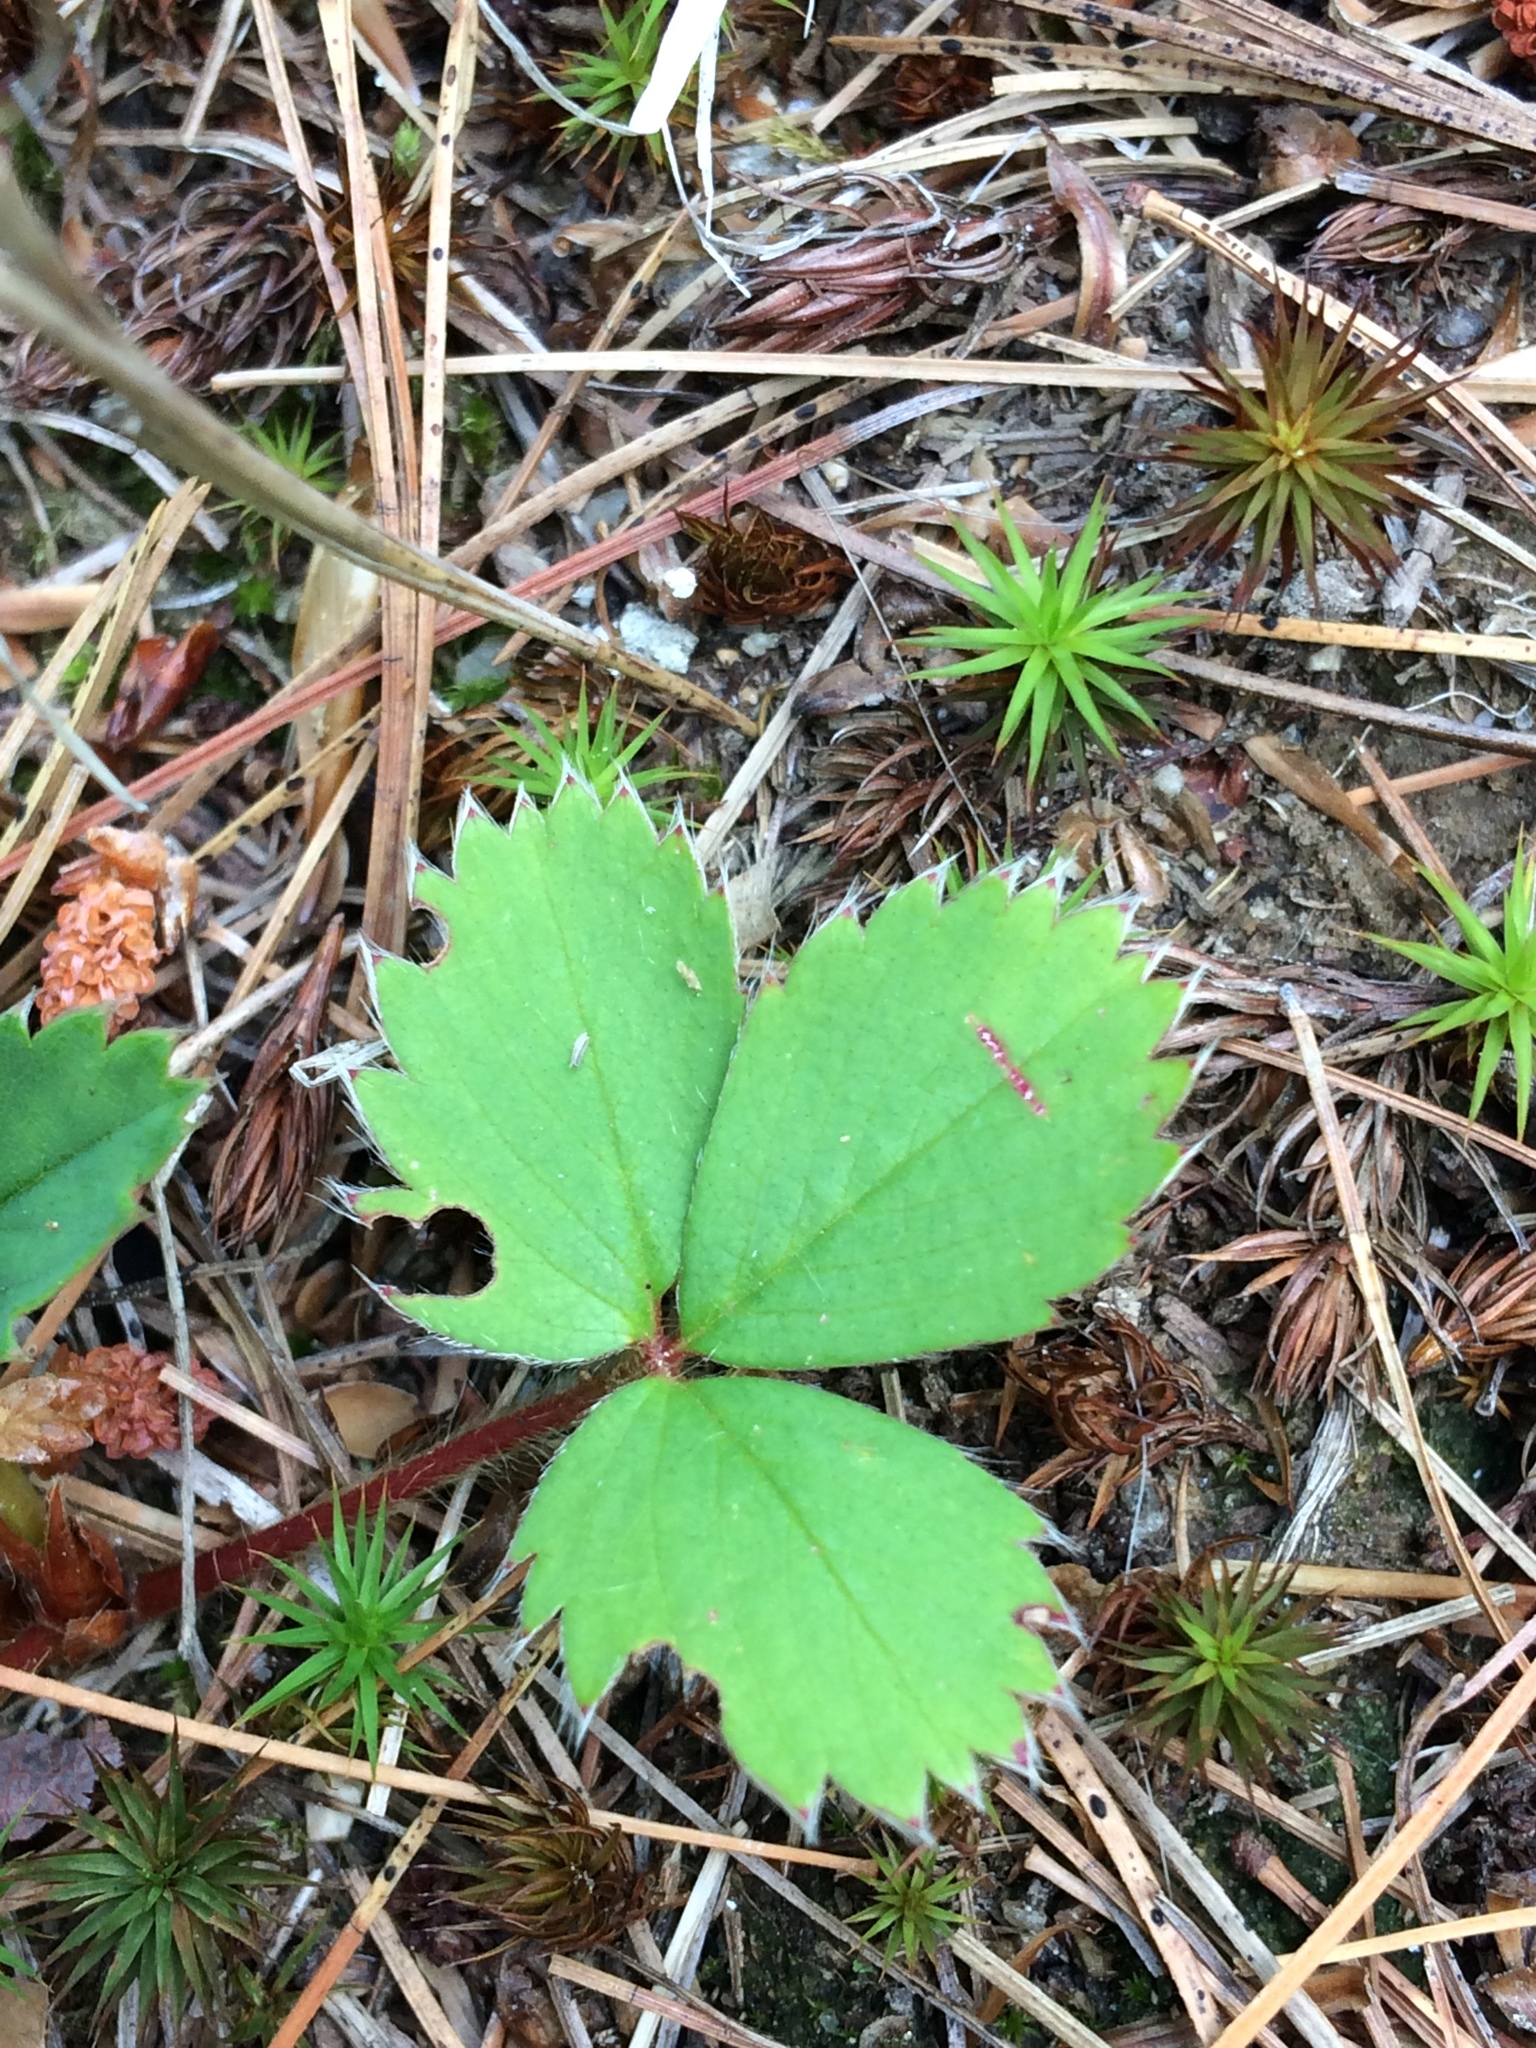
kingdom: Plantae
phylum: Tracheophyta
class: Magnoliopsida
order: Rosales
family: Rosaceae
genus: Fragaria
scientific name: Fragaria virginiana
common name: Thickleaved wild strawberry
